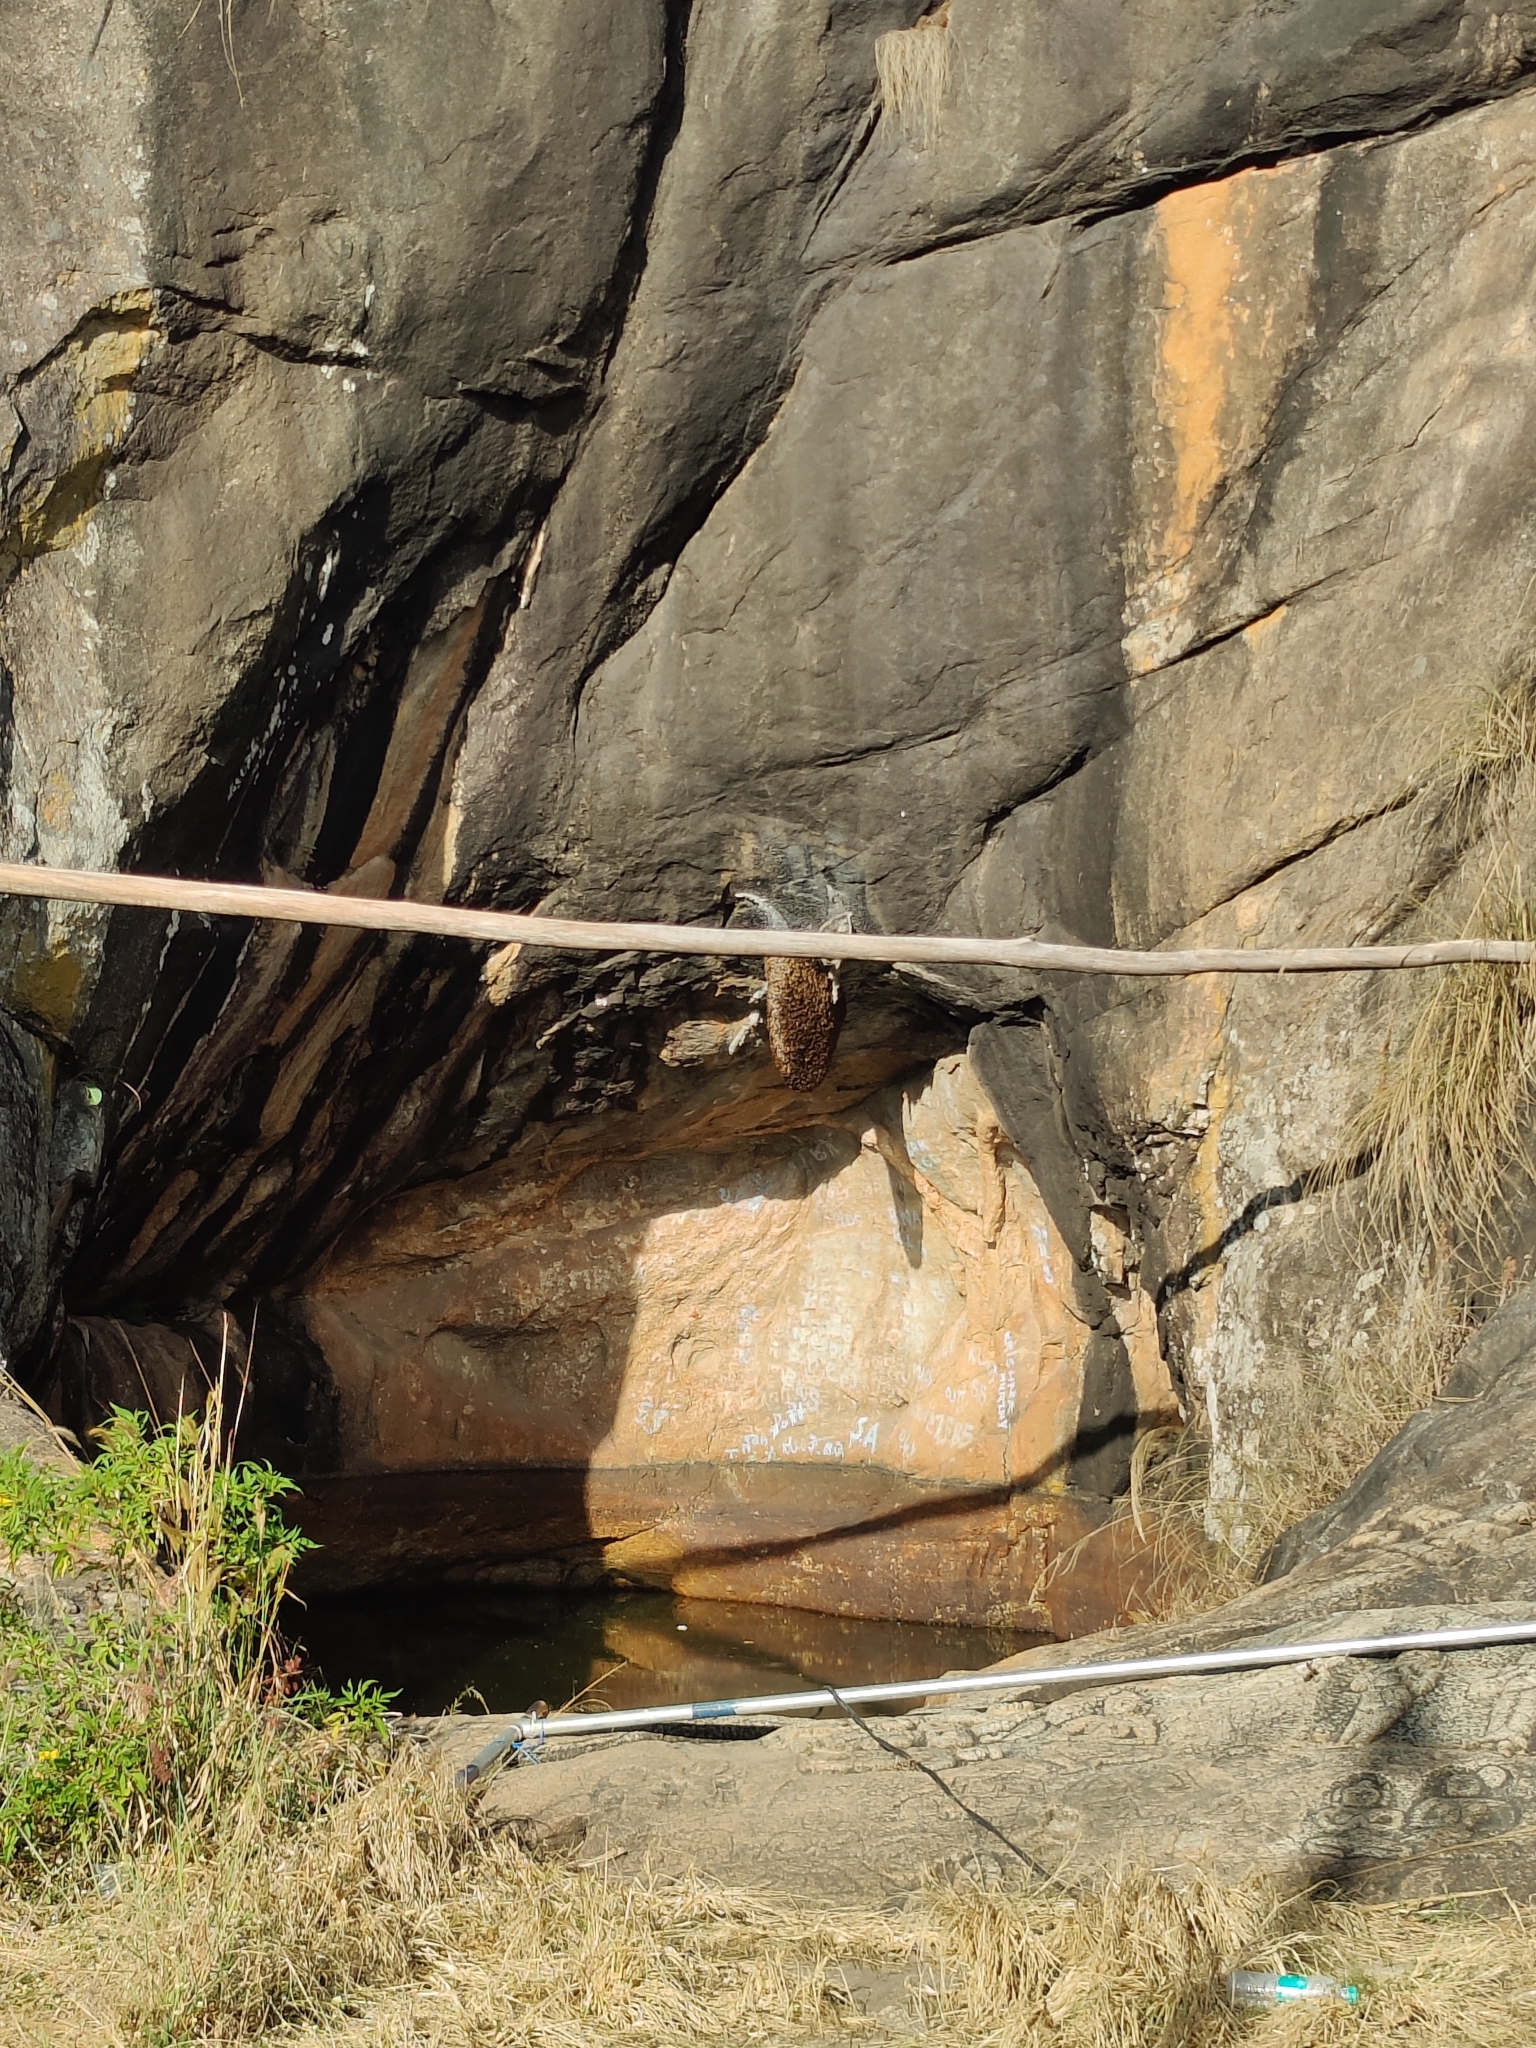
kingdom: Animalia
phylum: Arthropoda
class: Insecta
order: Hymenoptera
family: Apidae
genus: Apis
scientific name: Apis dorsata
